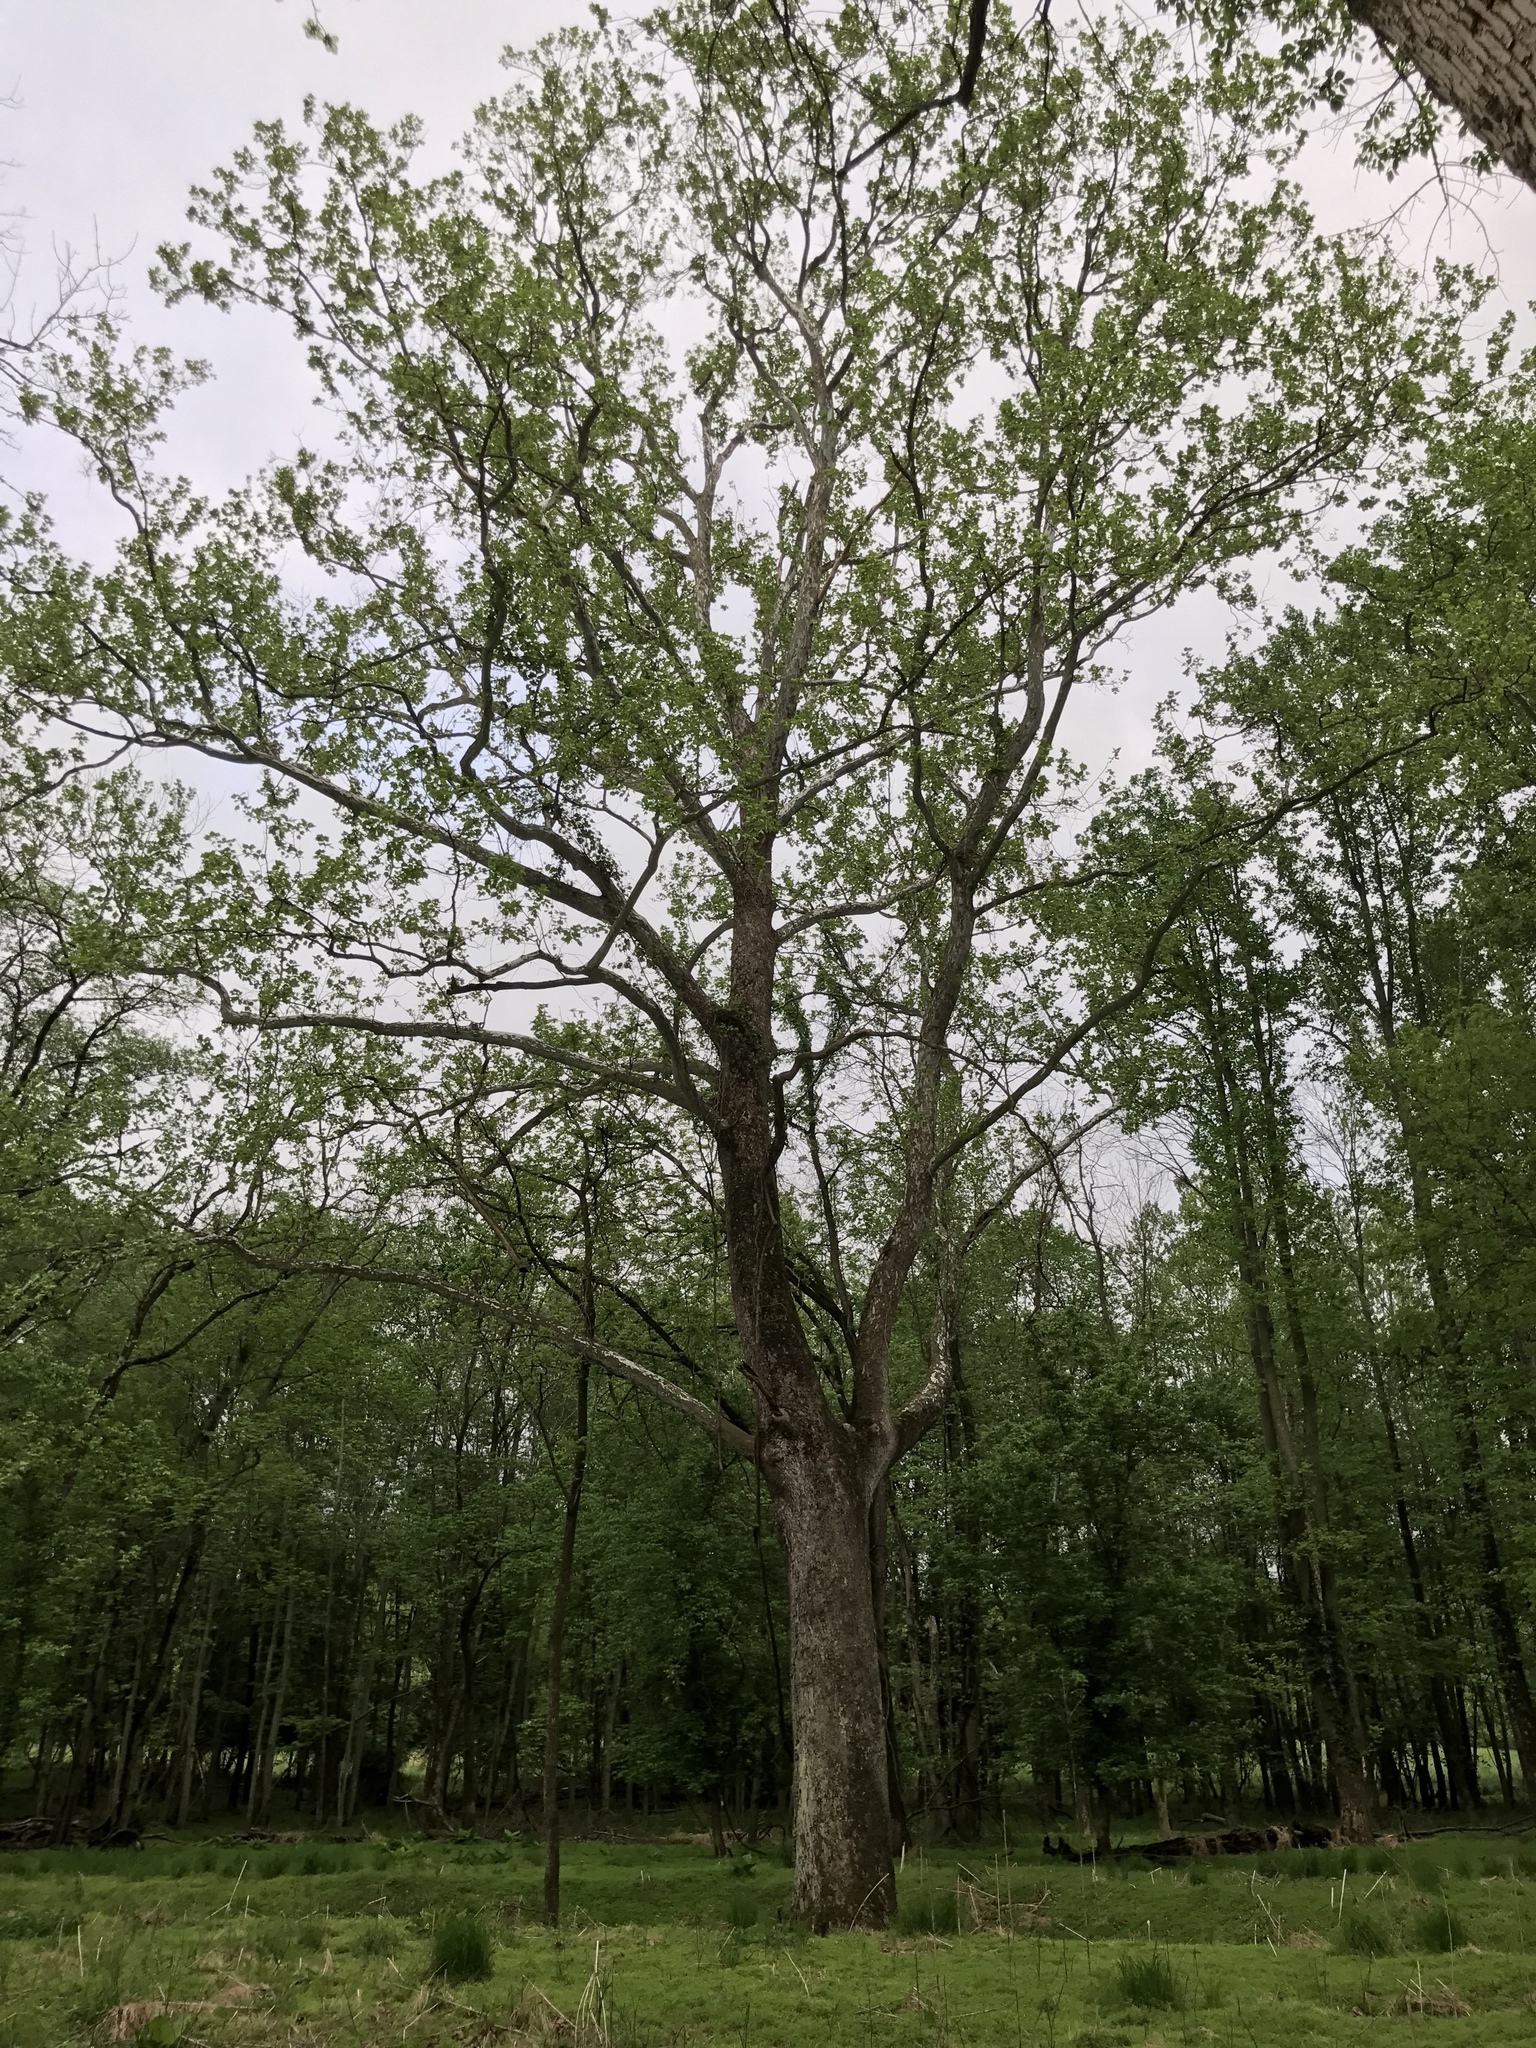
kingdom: Plantae
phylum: Tracheophyta
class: Magnoliopsida
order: Proteales
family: Platanaceae
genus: Platanus
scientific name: Platanus occidentalis
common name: American sycamore
